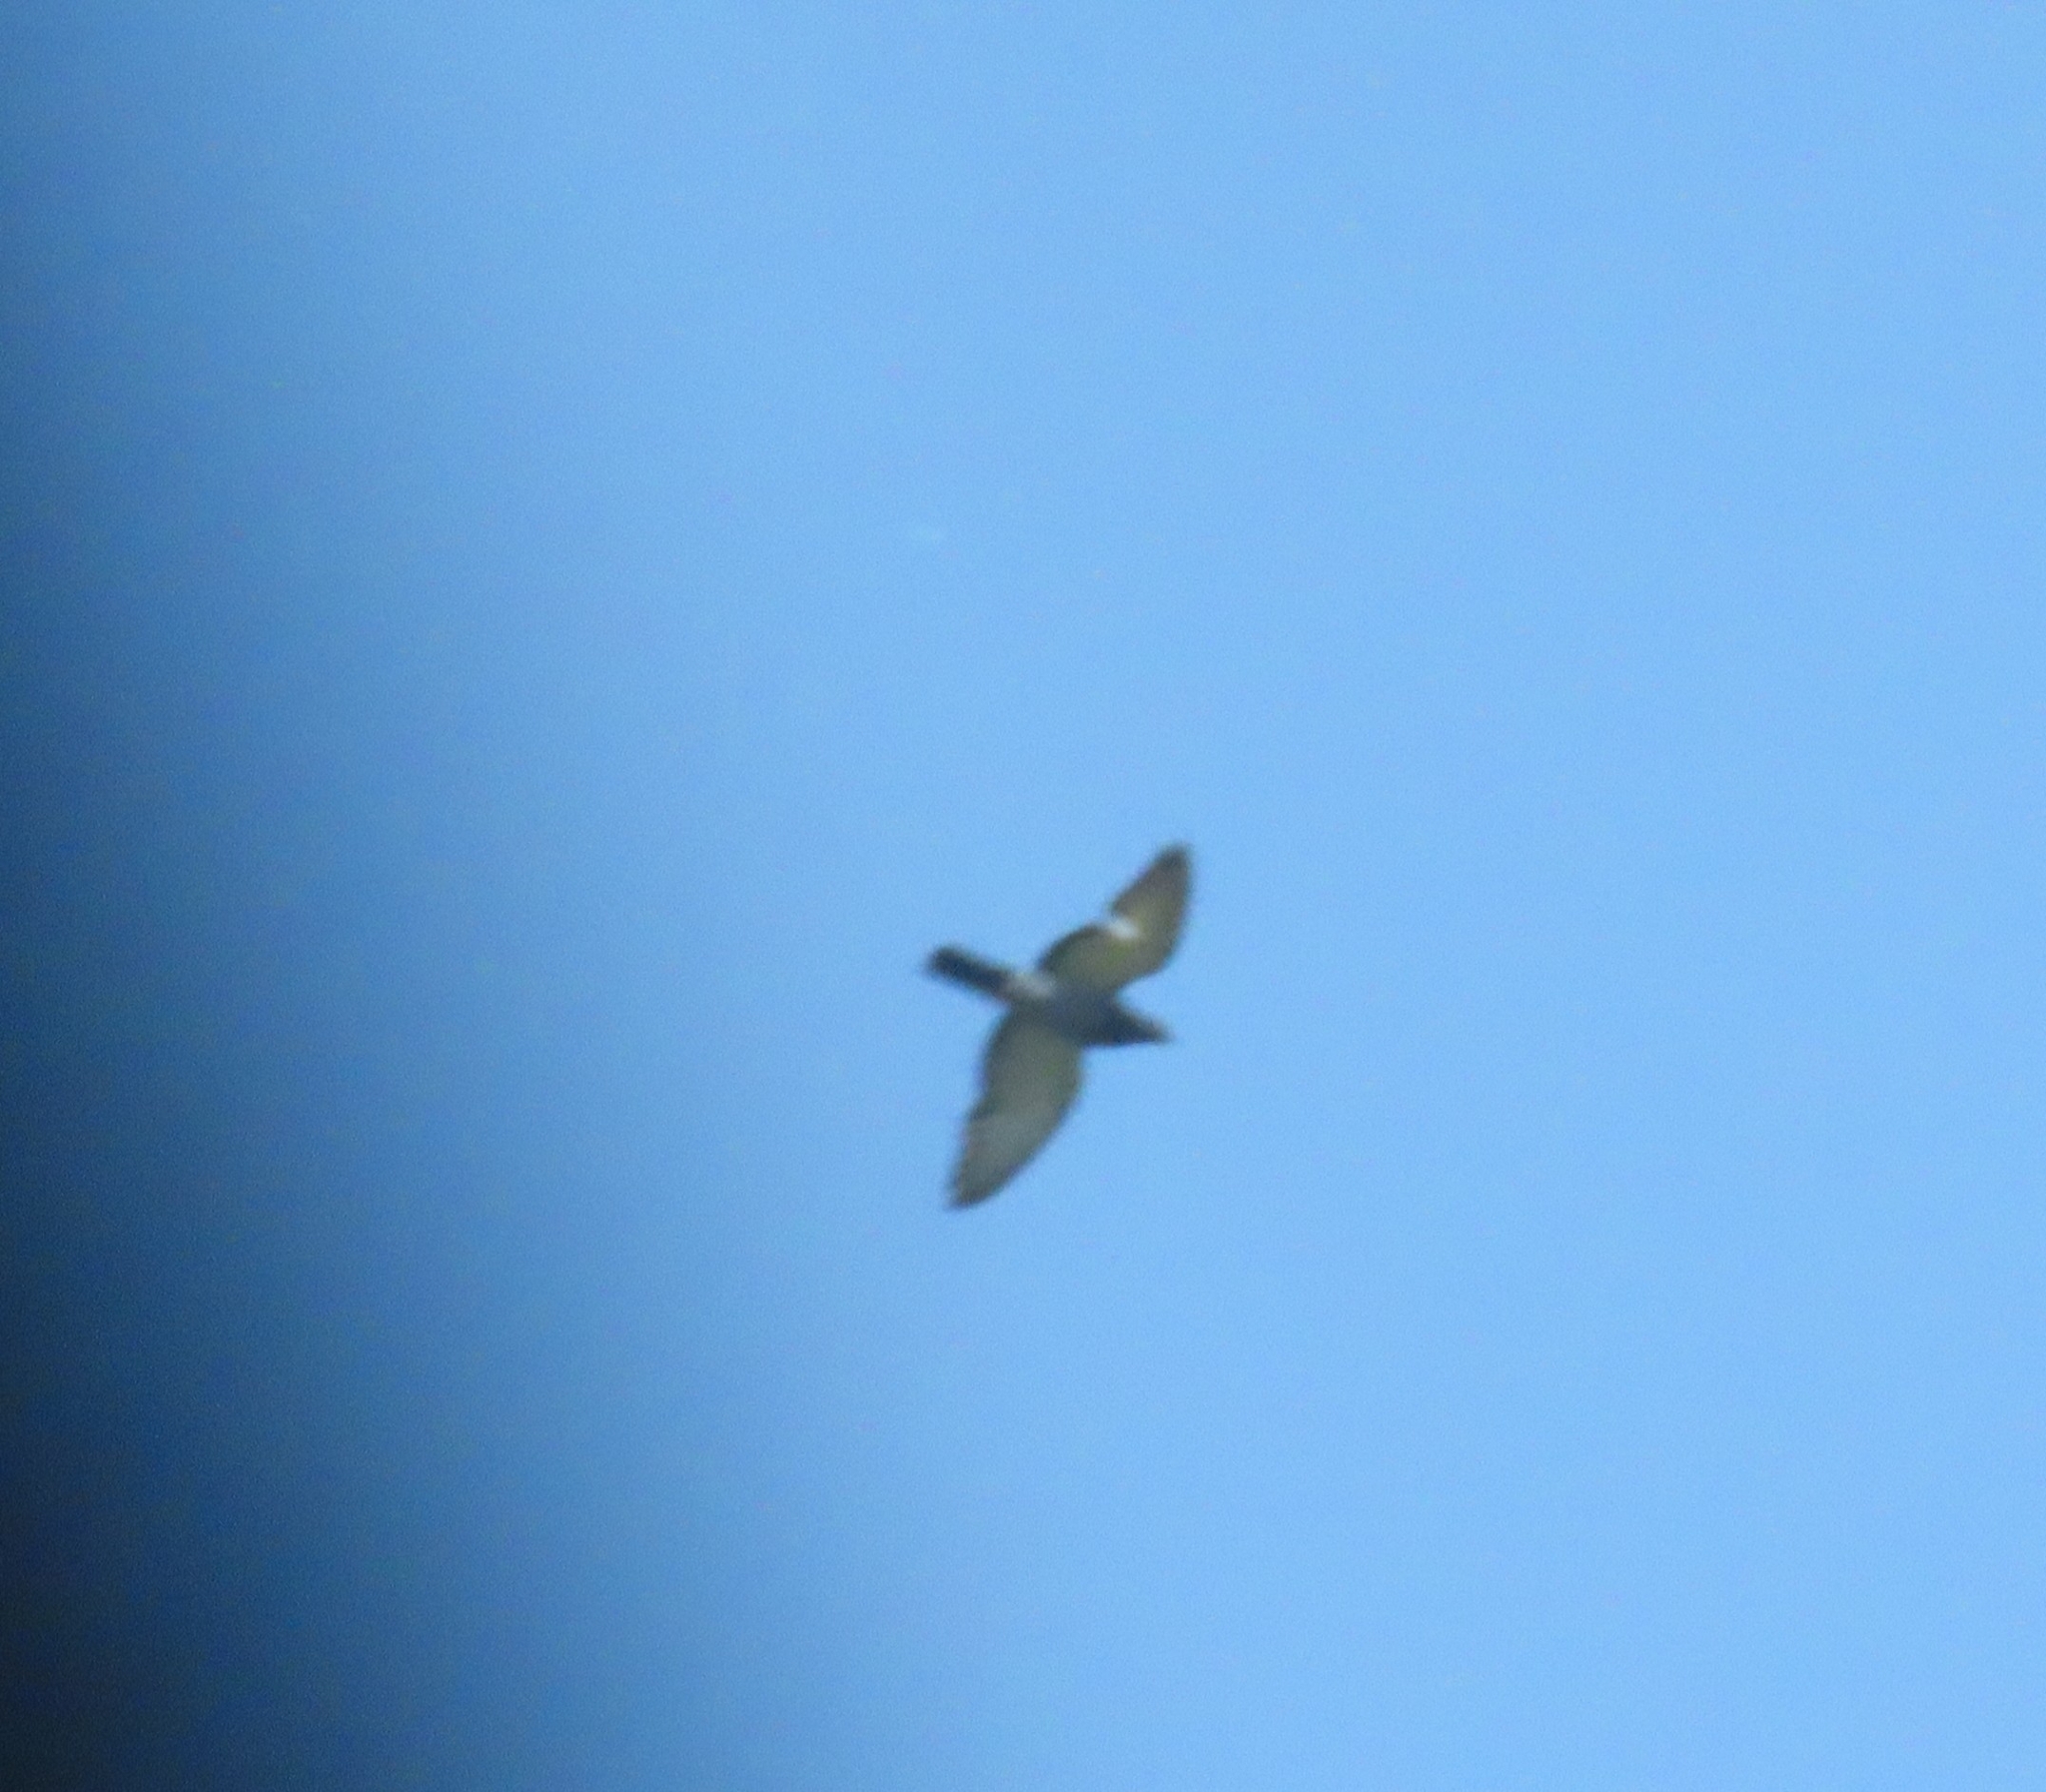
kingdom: Animalia
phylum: Chordata
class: Aves
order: Columbiformes
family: Columbidae
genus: Columba
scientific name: Columba livia
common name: Rock pigeon
